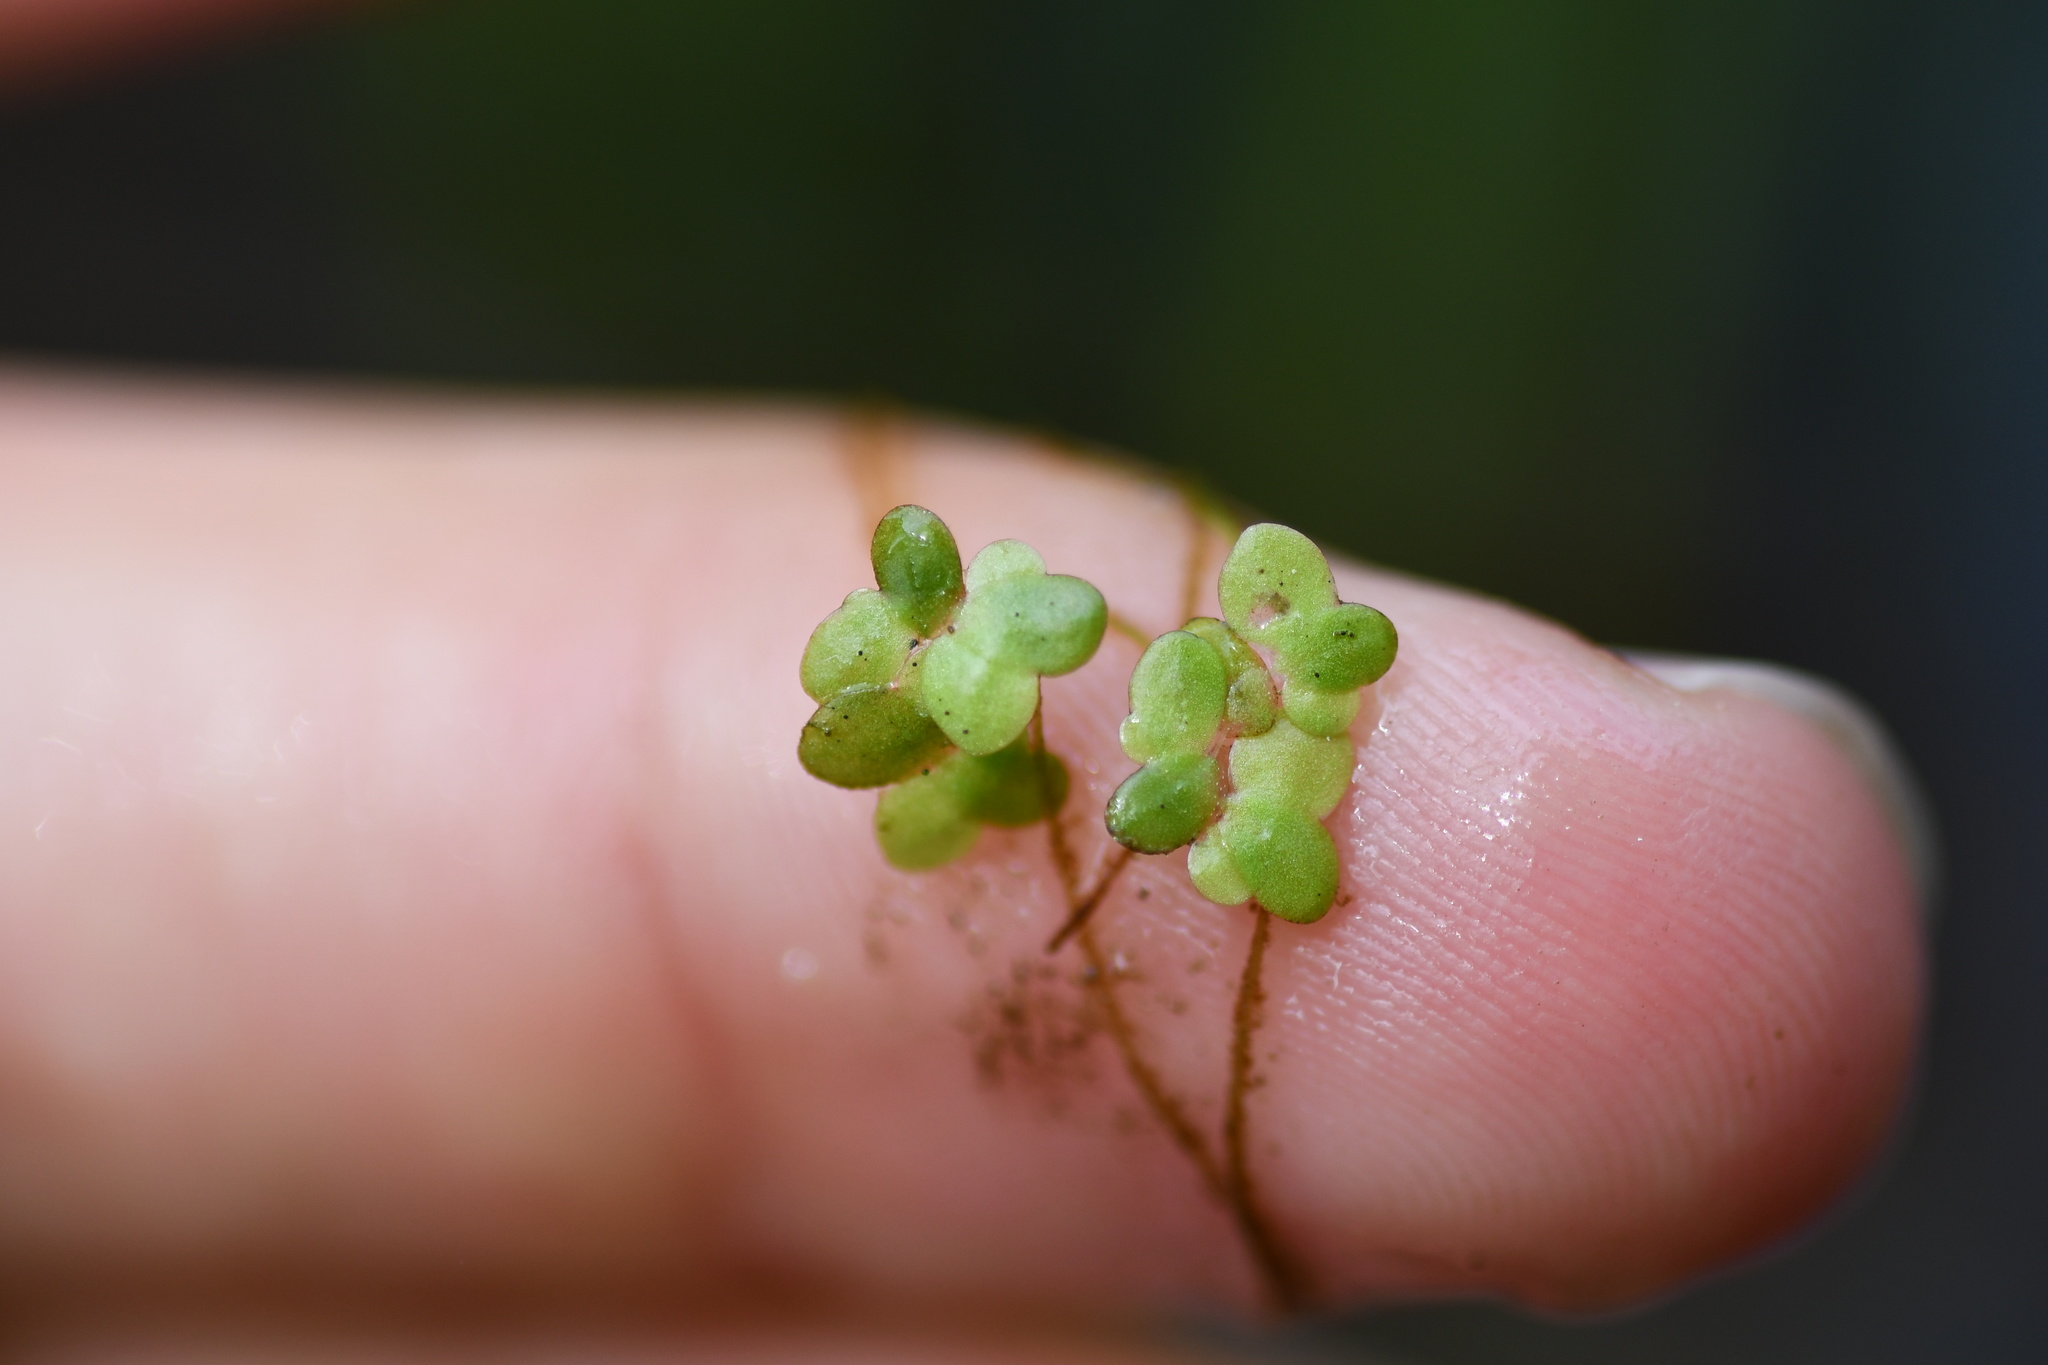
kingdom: Plantae
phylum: Tracheophyta
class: Liliopsida
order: Alismatales
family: Araceae
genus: Lemna
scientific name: Lemna minor
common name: Common duckweed
